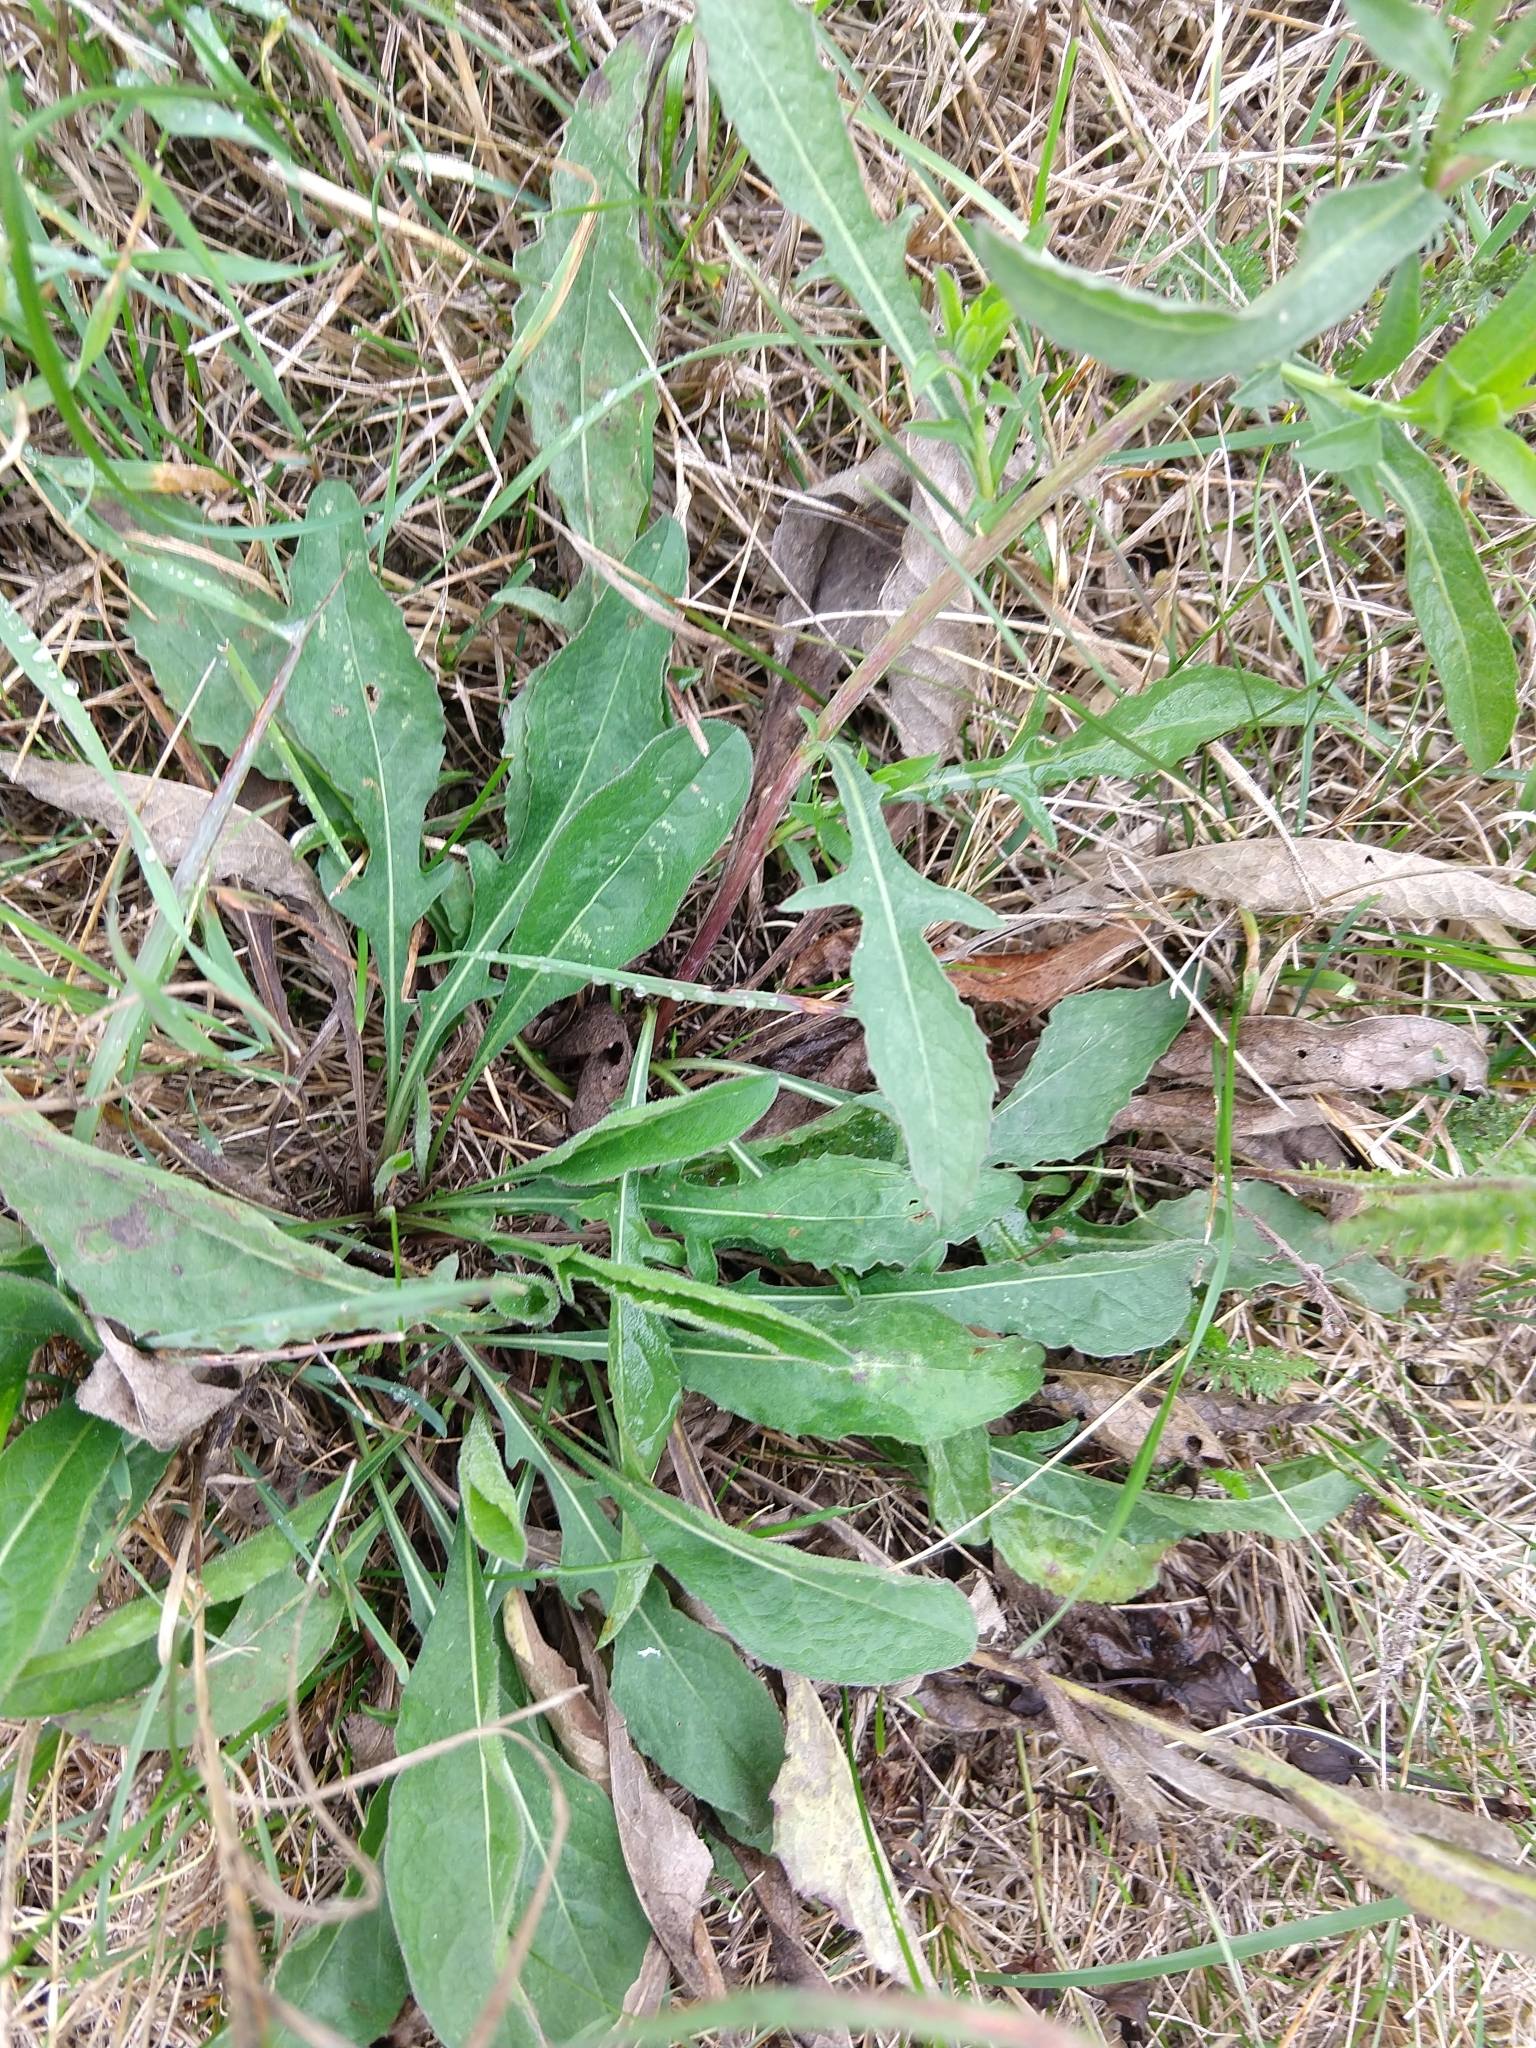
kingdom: Plantae
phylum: Tracheophyta
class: Magnoliopsida
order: Asterales
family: Asteraceae
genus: Centaurea
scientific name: Centaurea jacea
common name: Brown knapweed
